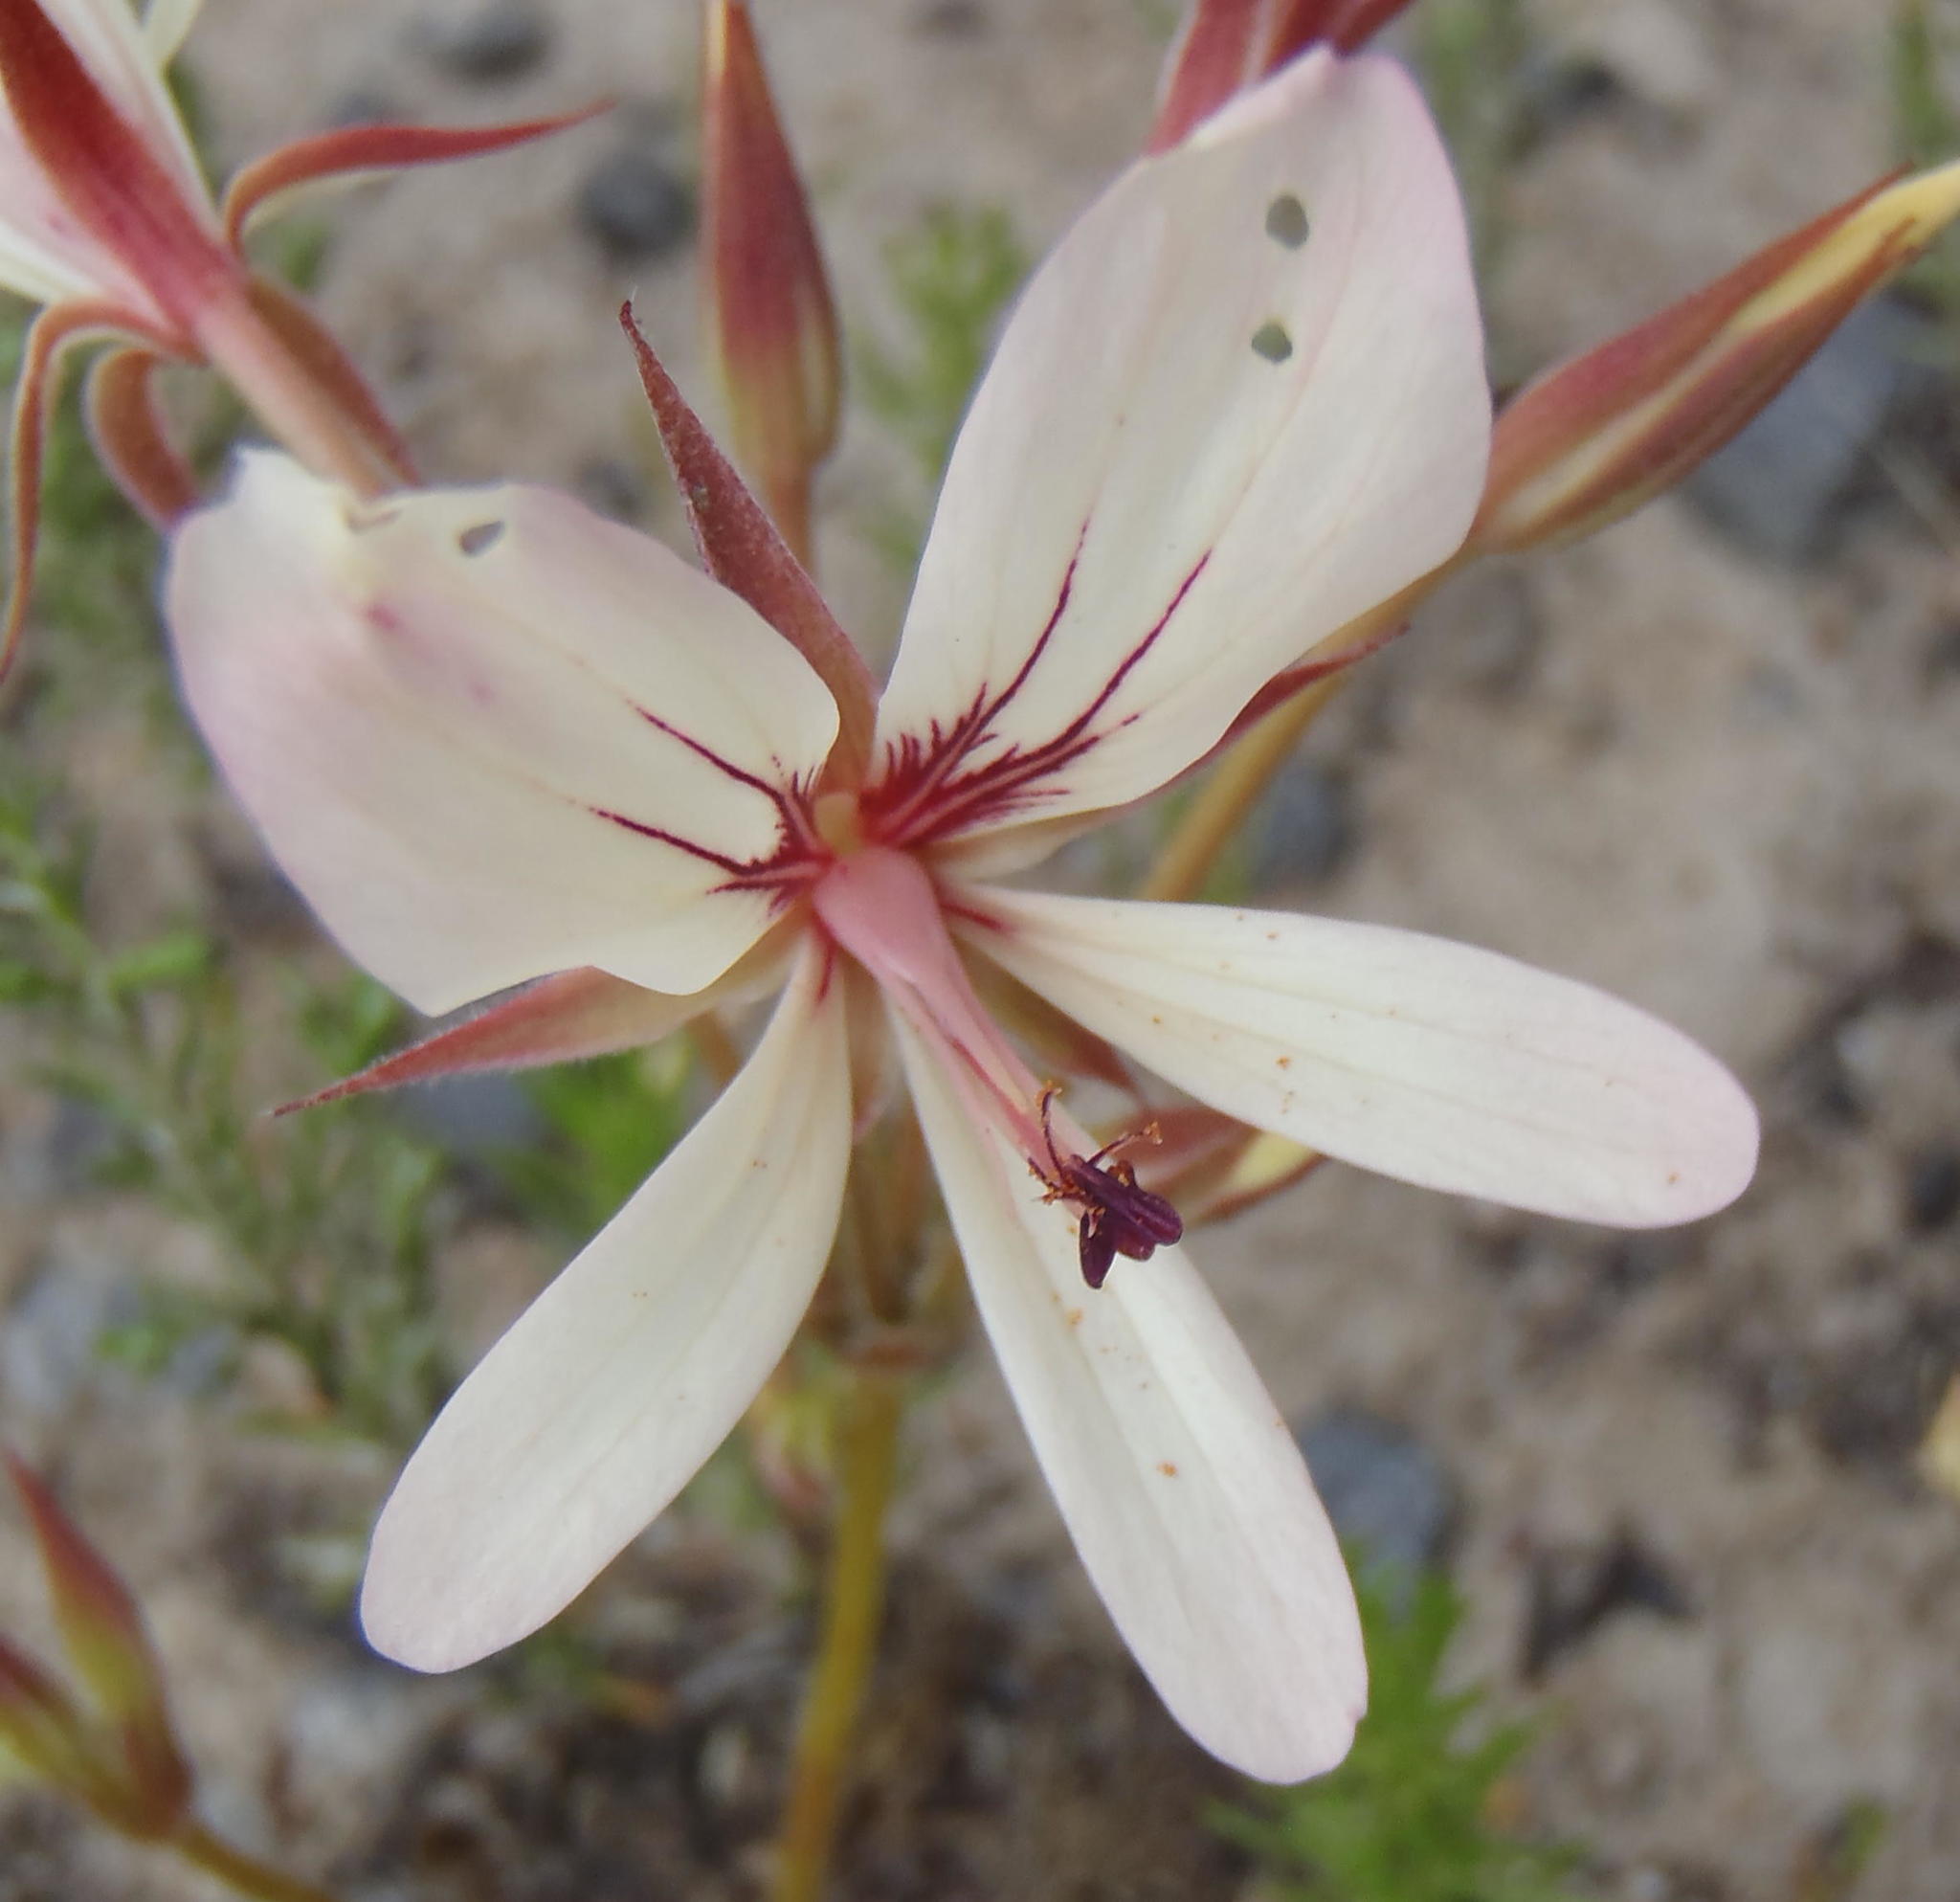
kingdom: Plantae
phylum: Tracheophyta
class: Magnoliopsida
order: Geraniales
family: Geraniaceae
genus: Pelargonium
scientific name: Pelargonium carneum
